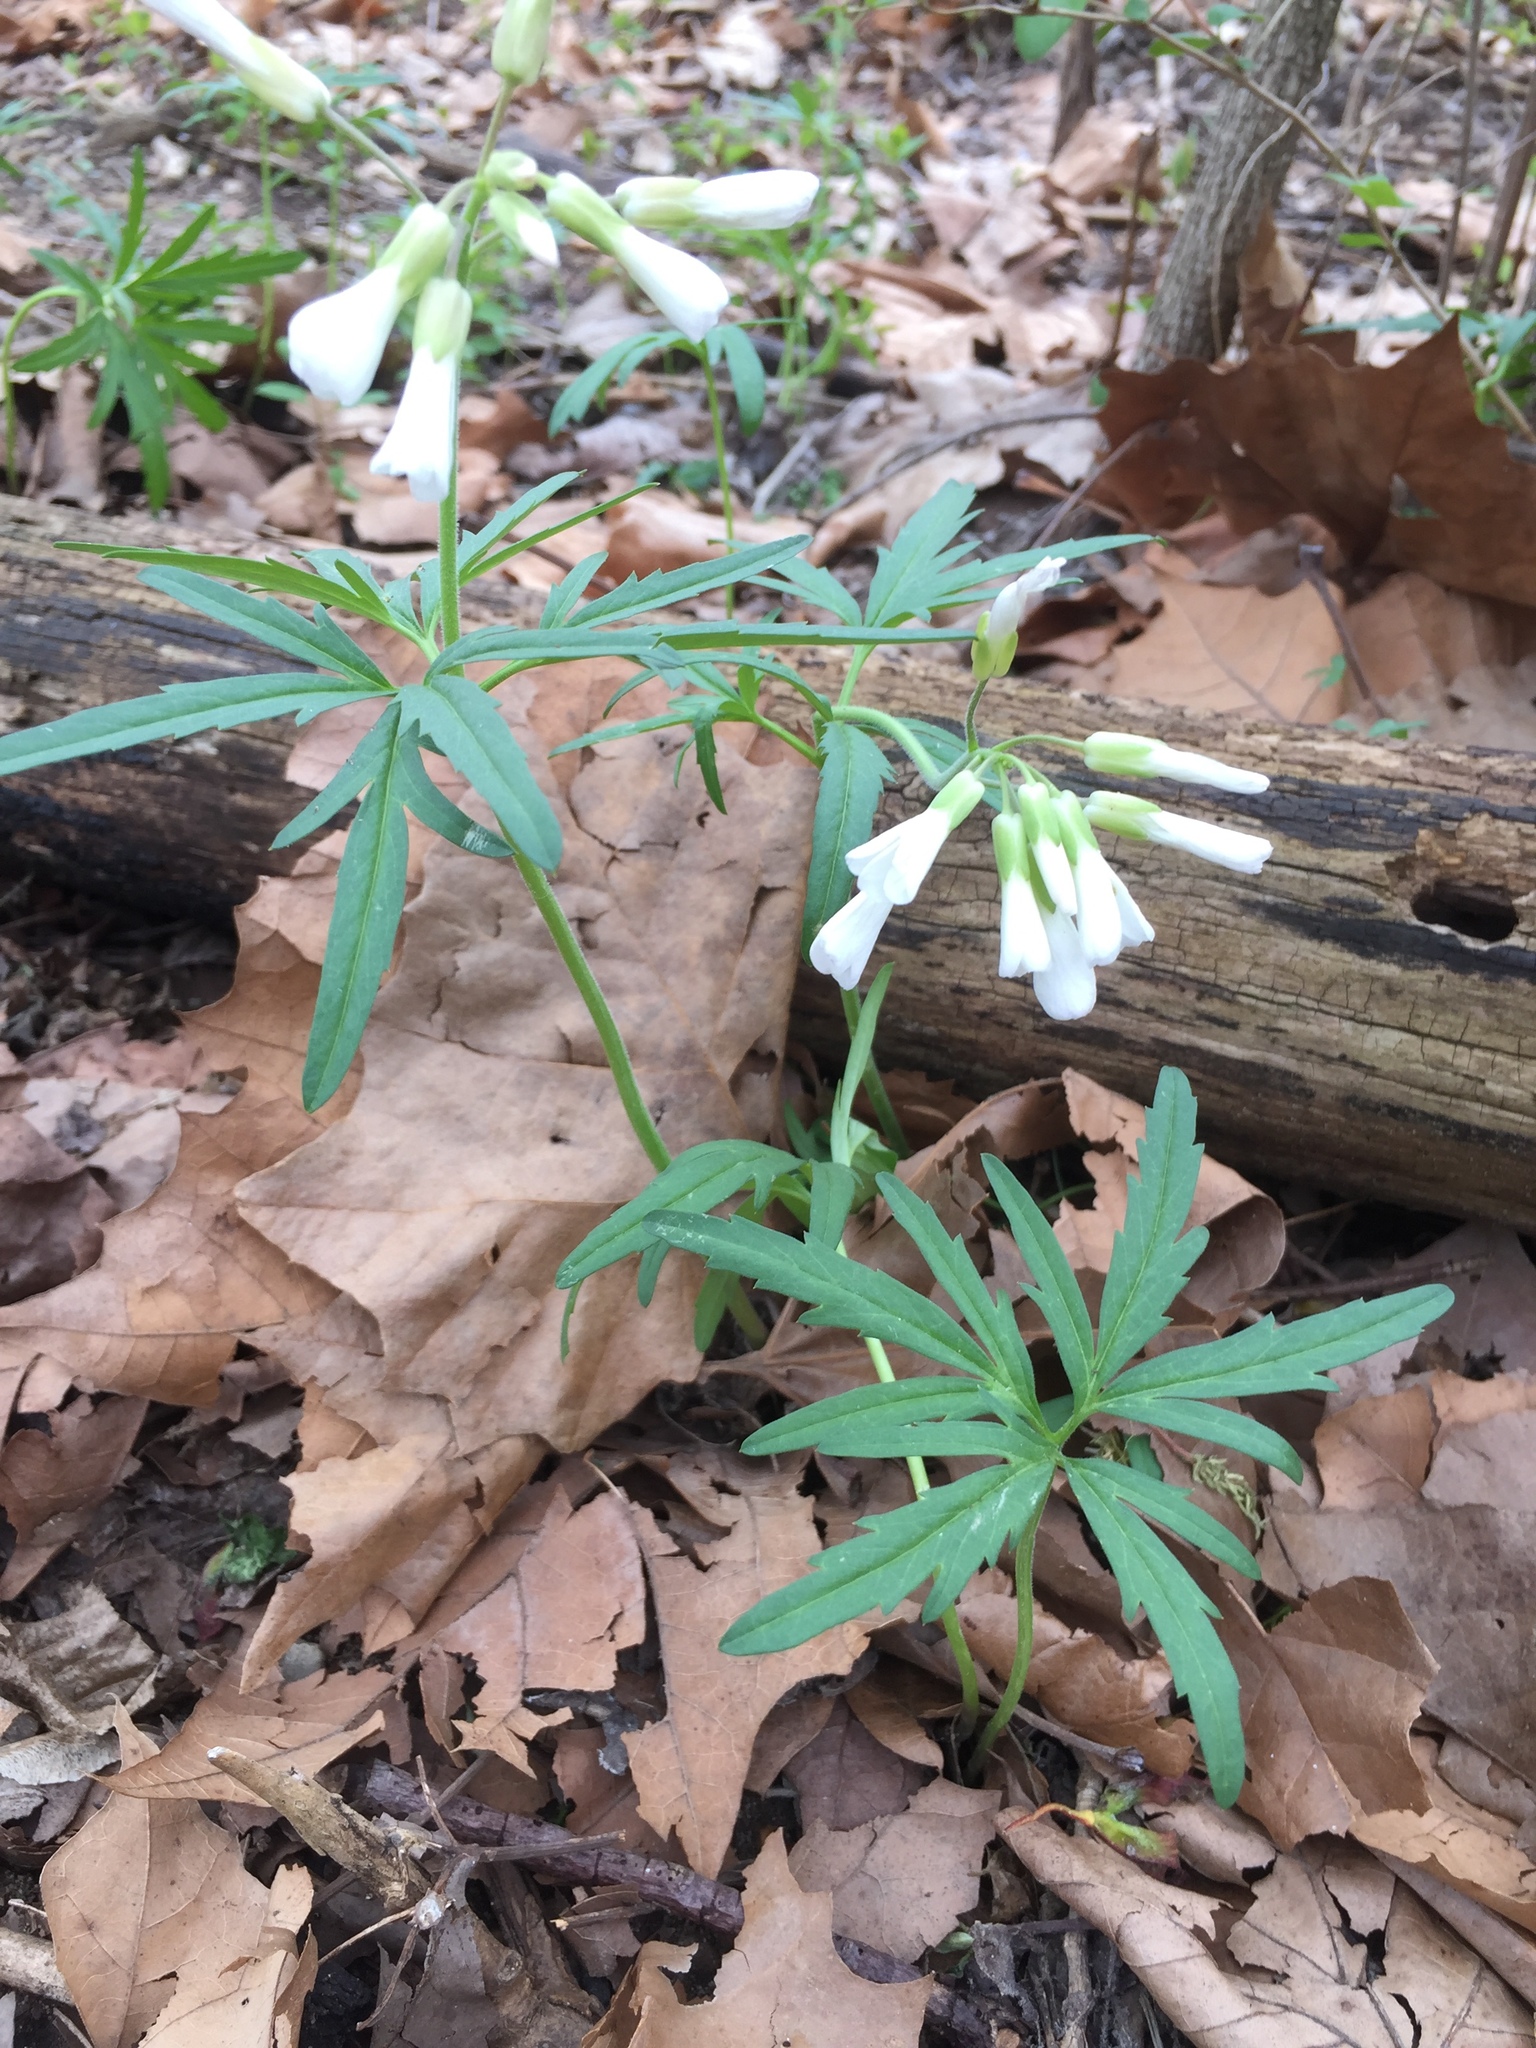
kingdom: Plantae
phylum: Tracheophyta
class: Magnoliopsida
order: Brassicales
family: Brassicaceae
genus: Cardamine
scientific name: Cardamine concatenata
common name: Cut-leaf toothcup
